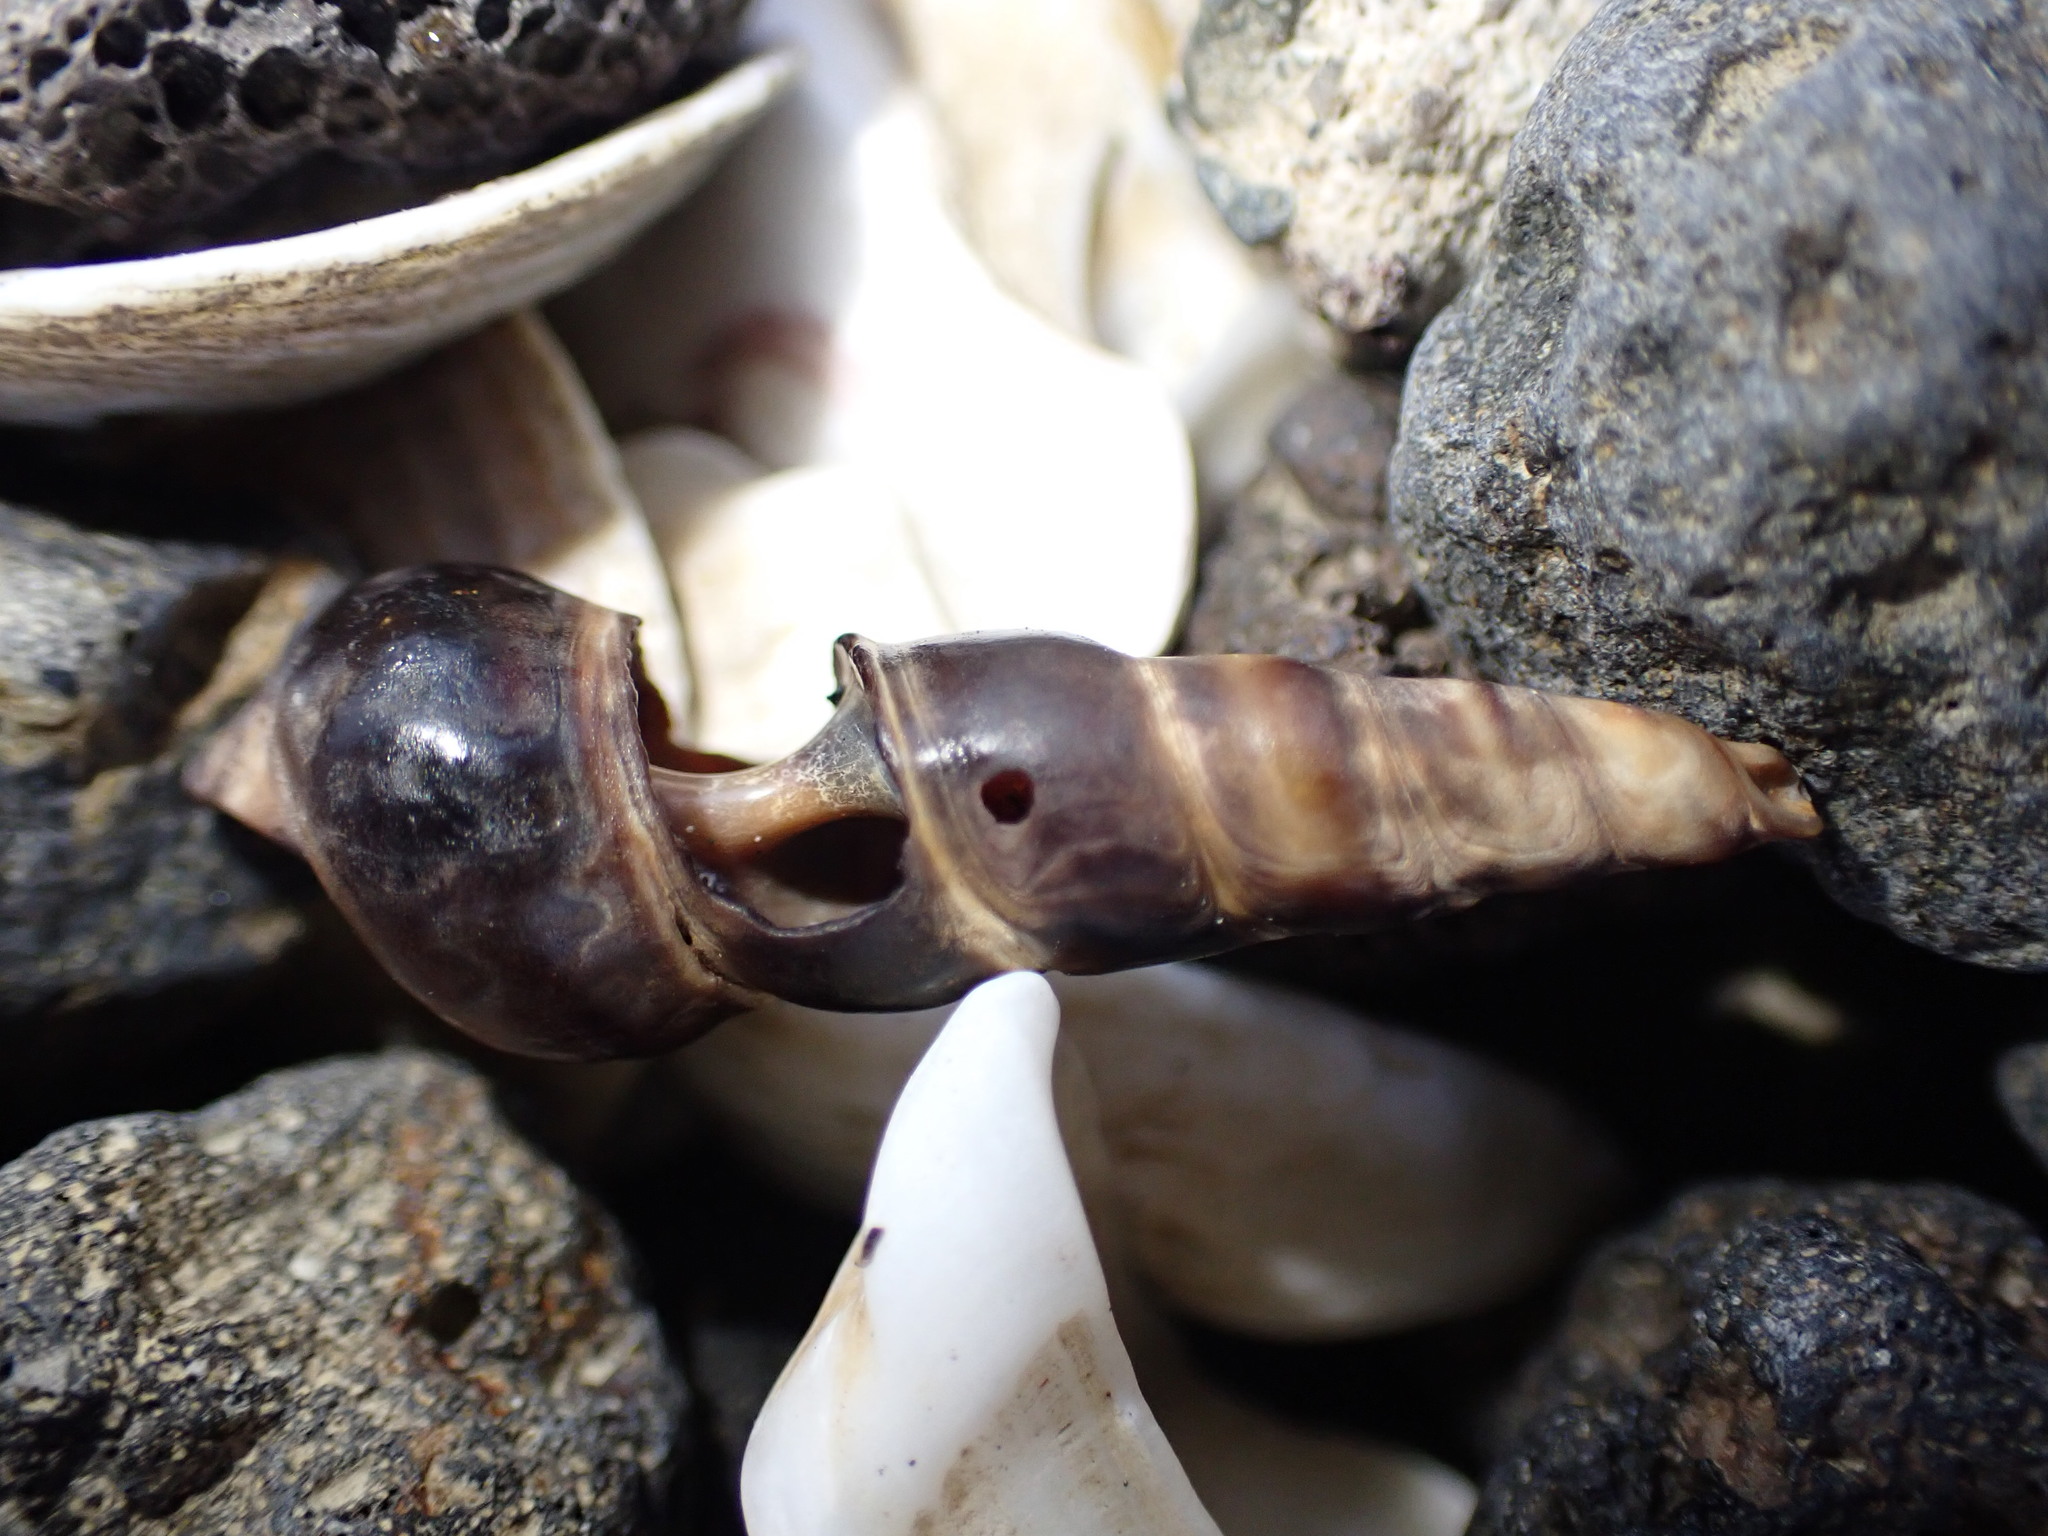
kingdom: Animalia
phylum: Mollusca
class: Gastropoda
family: Batillariidae
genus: Zeacumantus
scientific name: Zeacumantus subcarinatus
